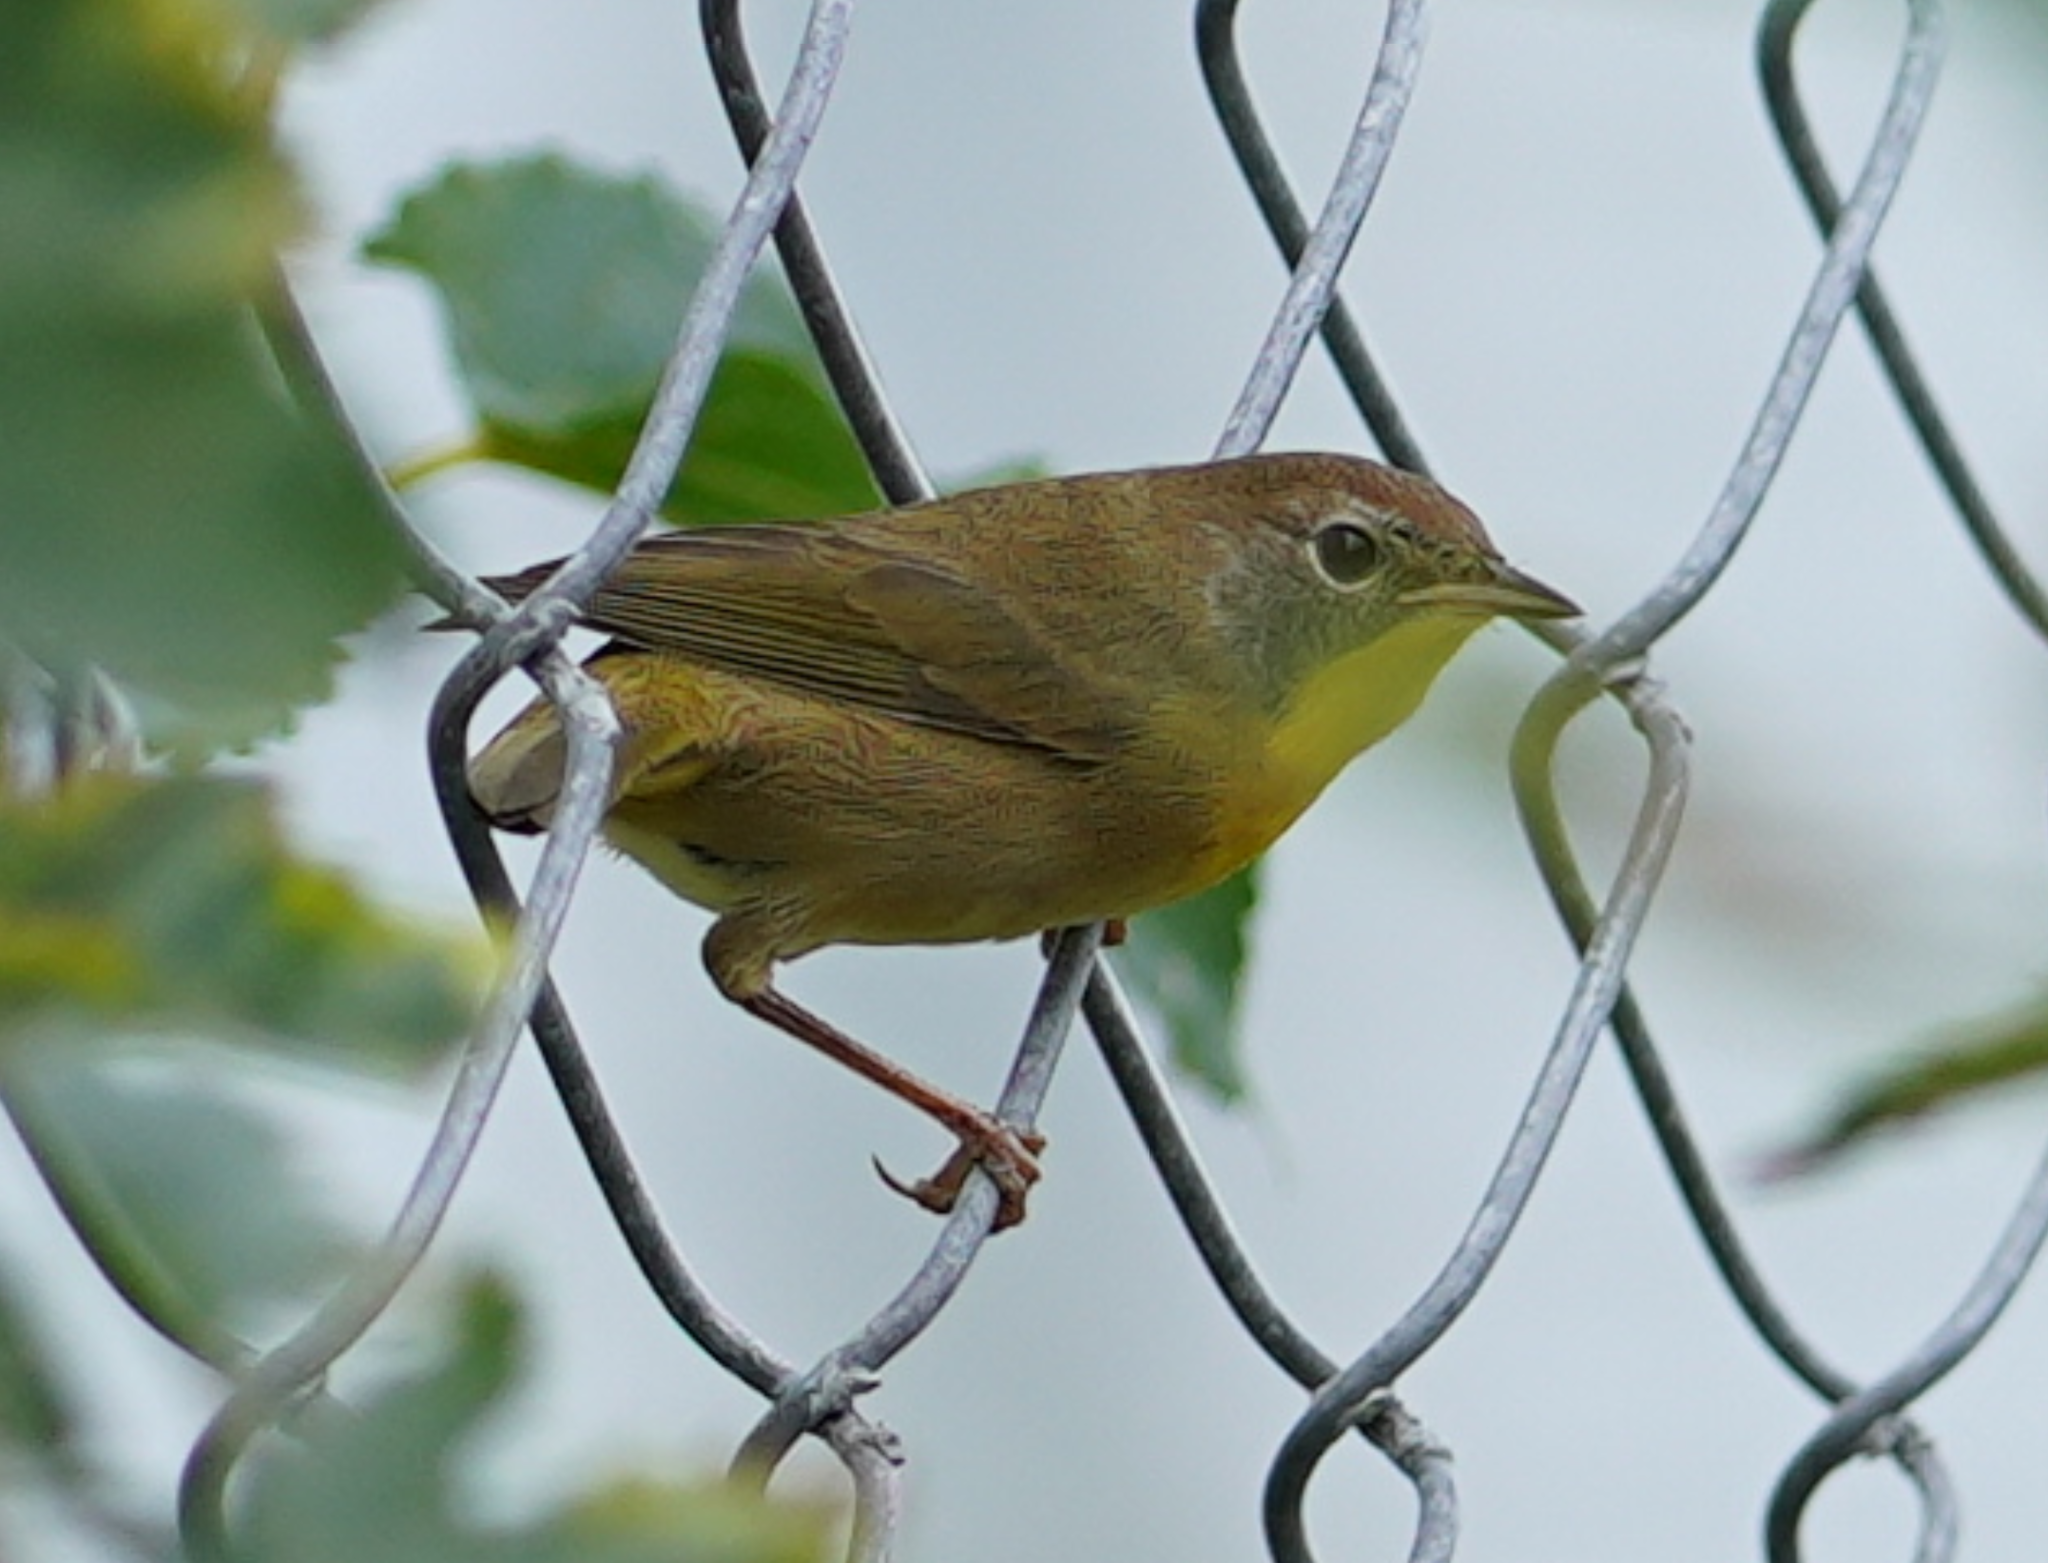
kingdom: Animalia
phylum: Chordata
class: Aves
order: Passeriformes
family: Parulidae
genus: Geothlypis
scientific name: Geothlypis trichas
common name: Common yellowthroat
